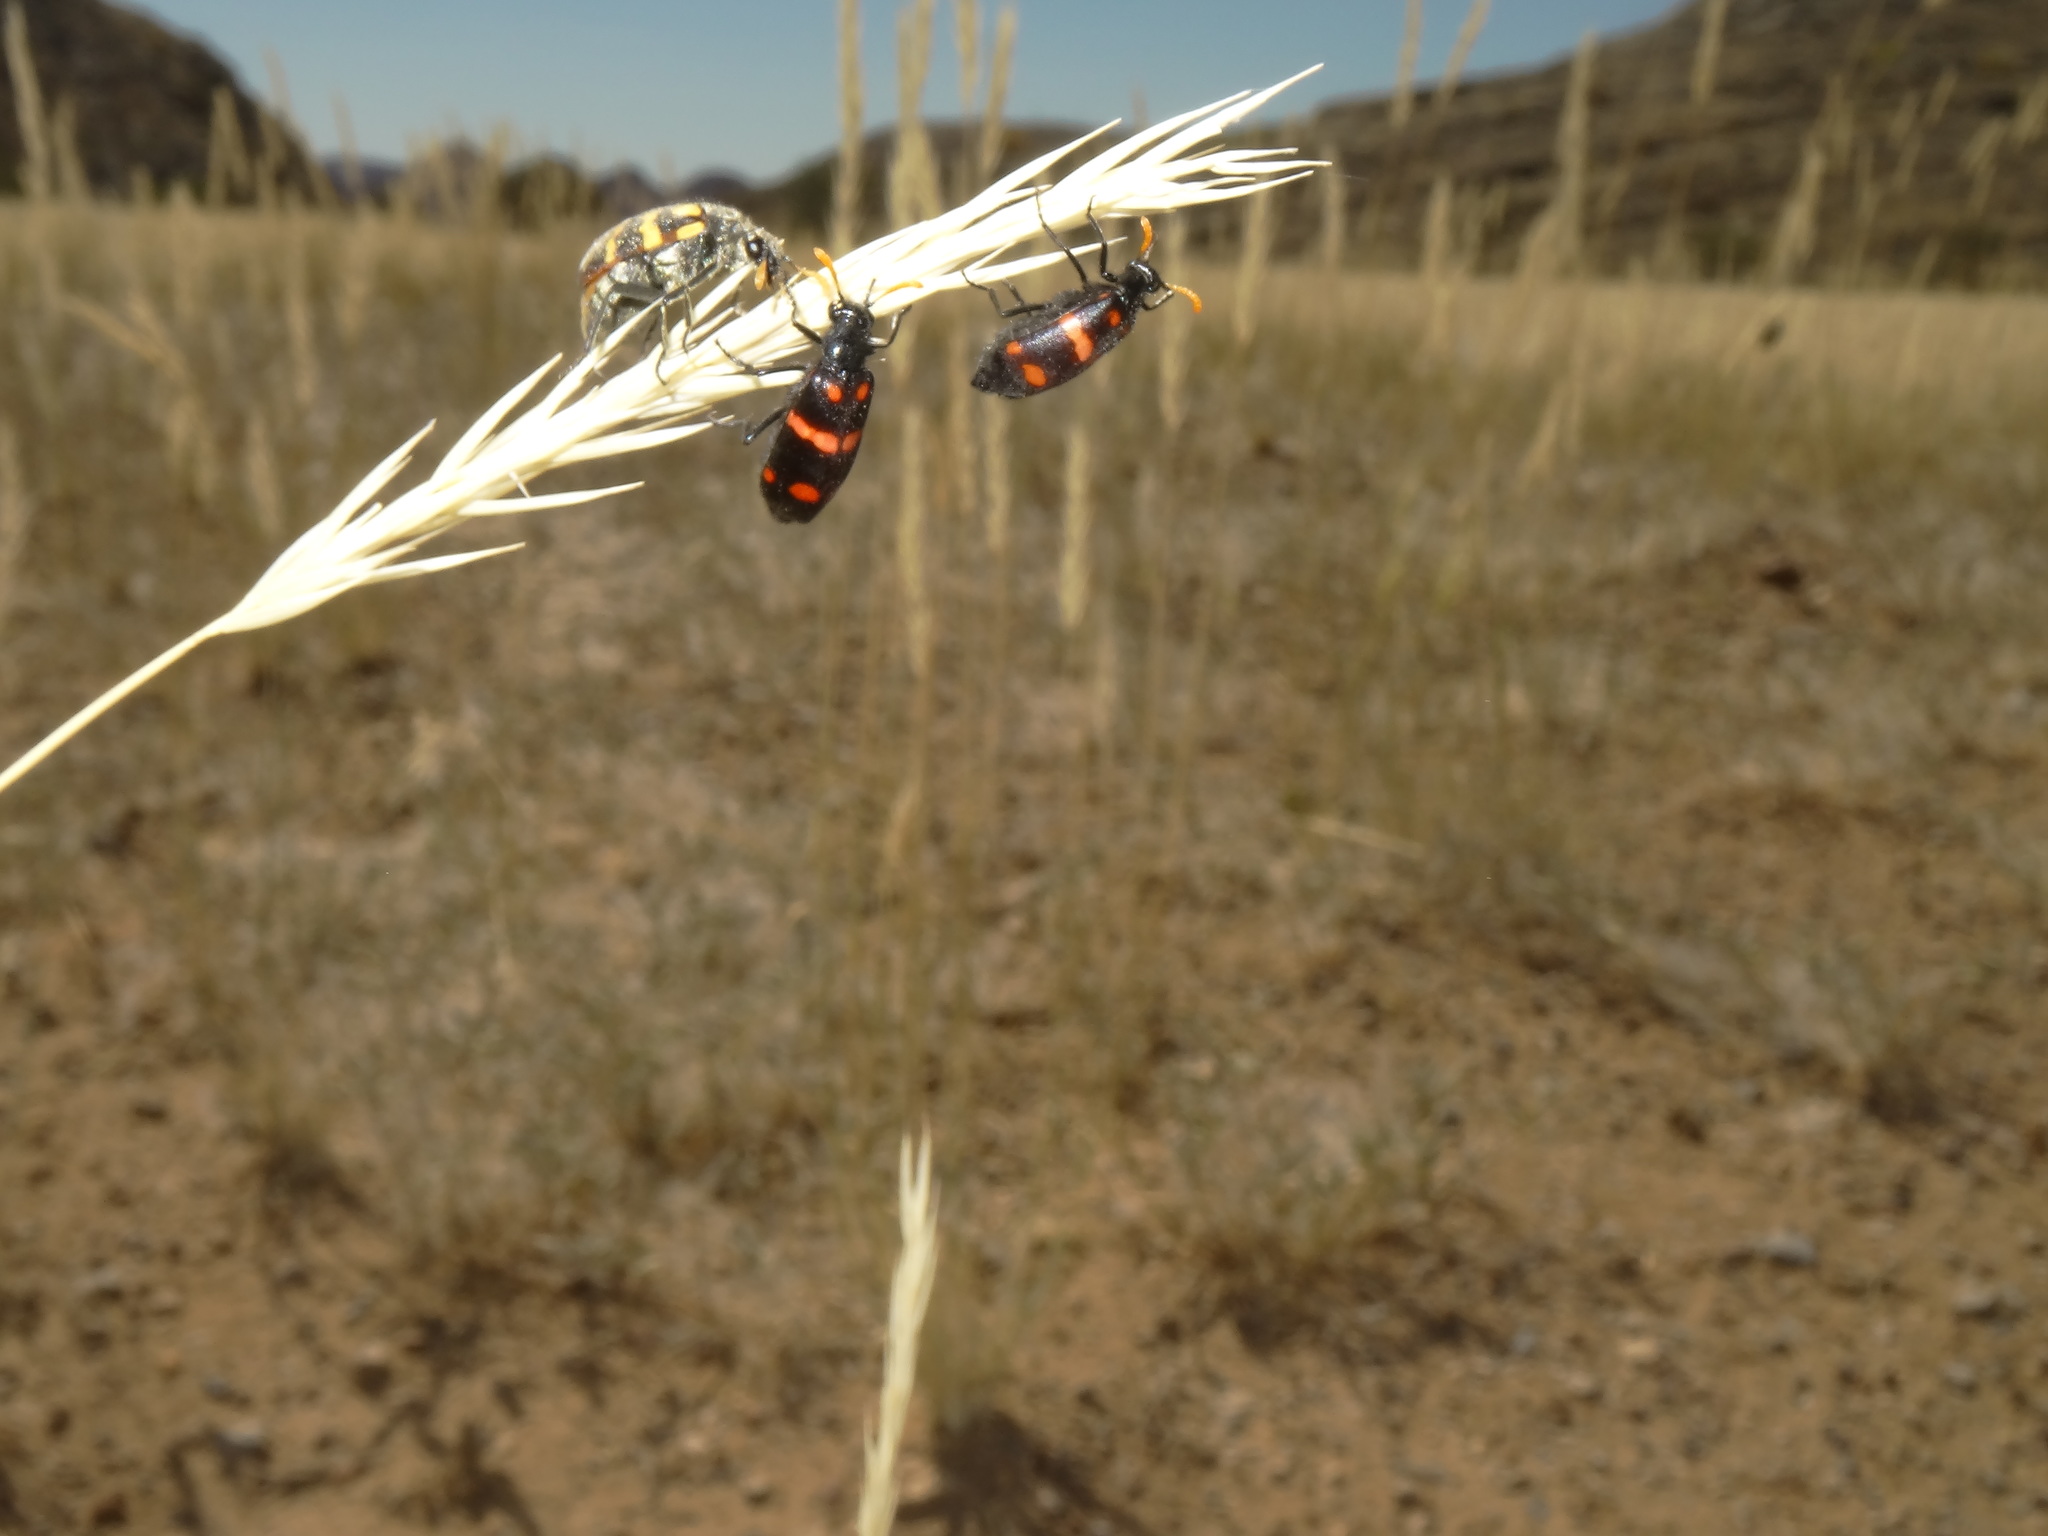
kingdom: Animalia
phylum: Arthropoda
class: Insecta
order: Coleoptera
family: Meloidae
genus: Hycleus
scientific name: Hycleus hybridus
